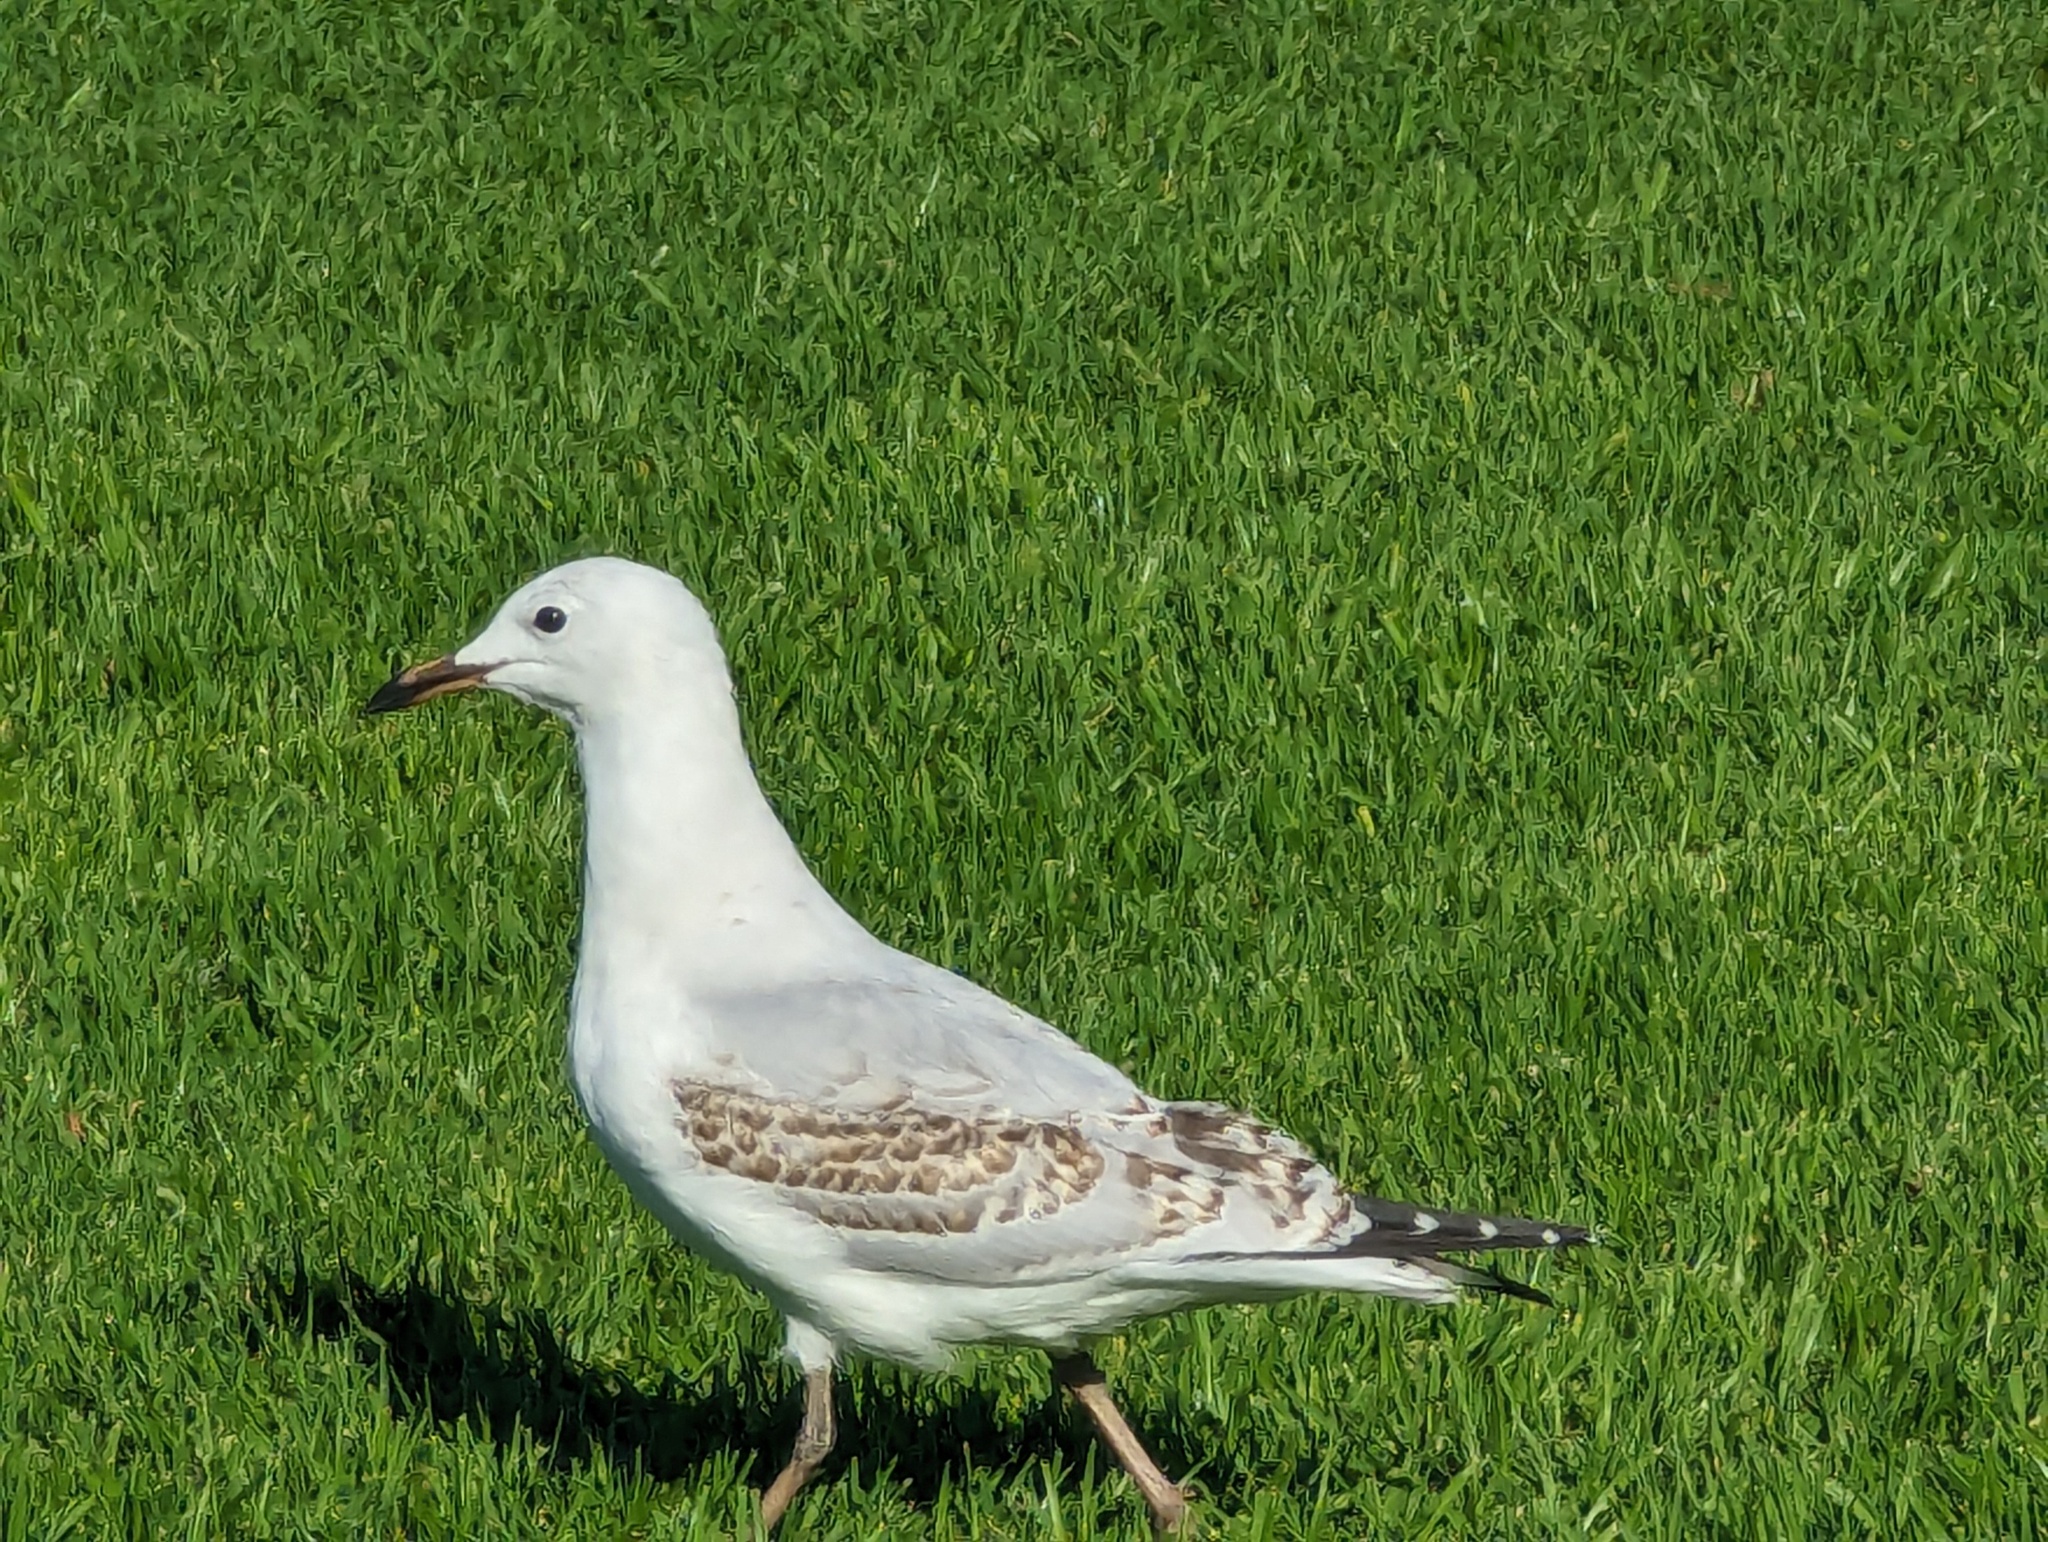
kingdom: Animalia
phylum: Chordata
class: Aves
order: Charadriiformes
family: Laridae
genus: Chroicocephalus
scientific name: Chroicocephalus novaehollandiae
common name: Silver gull
